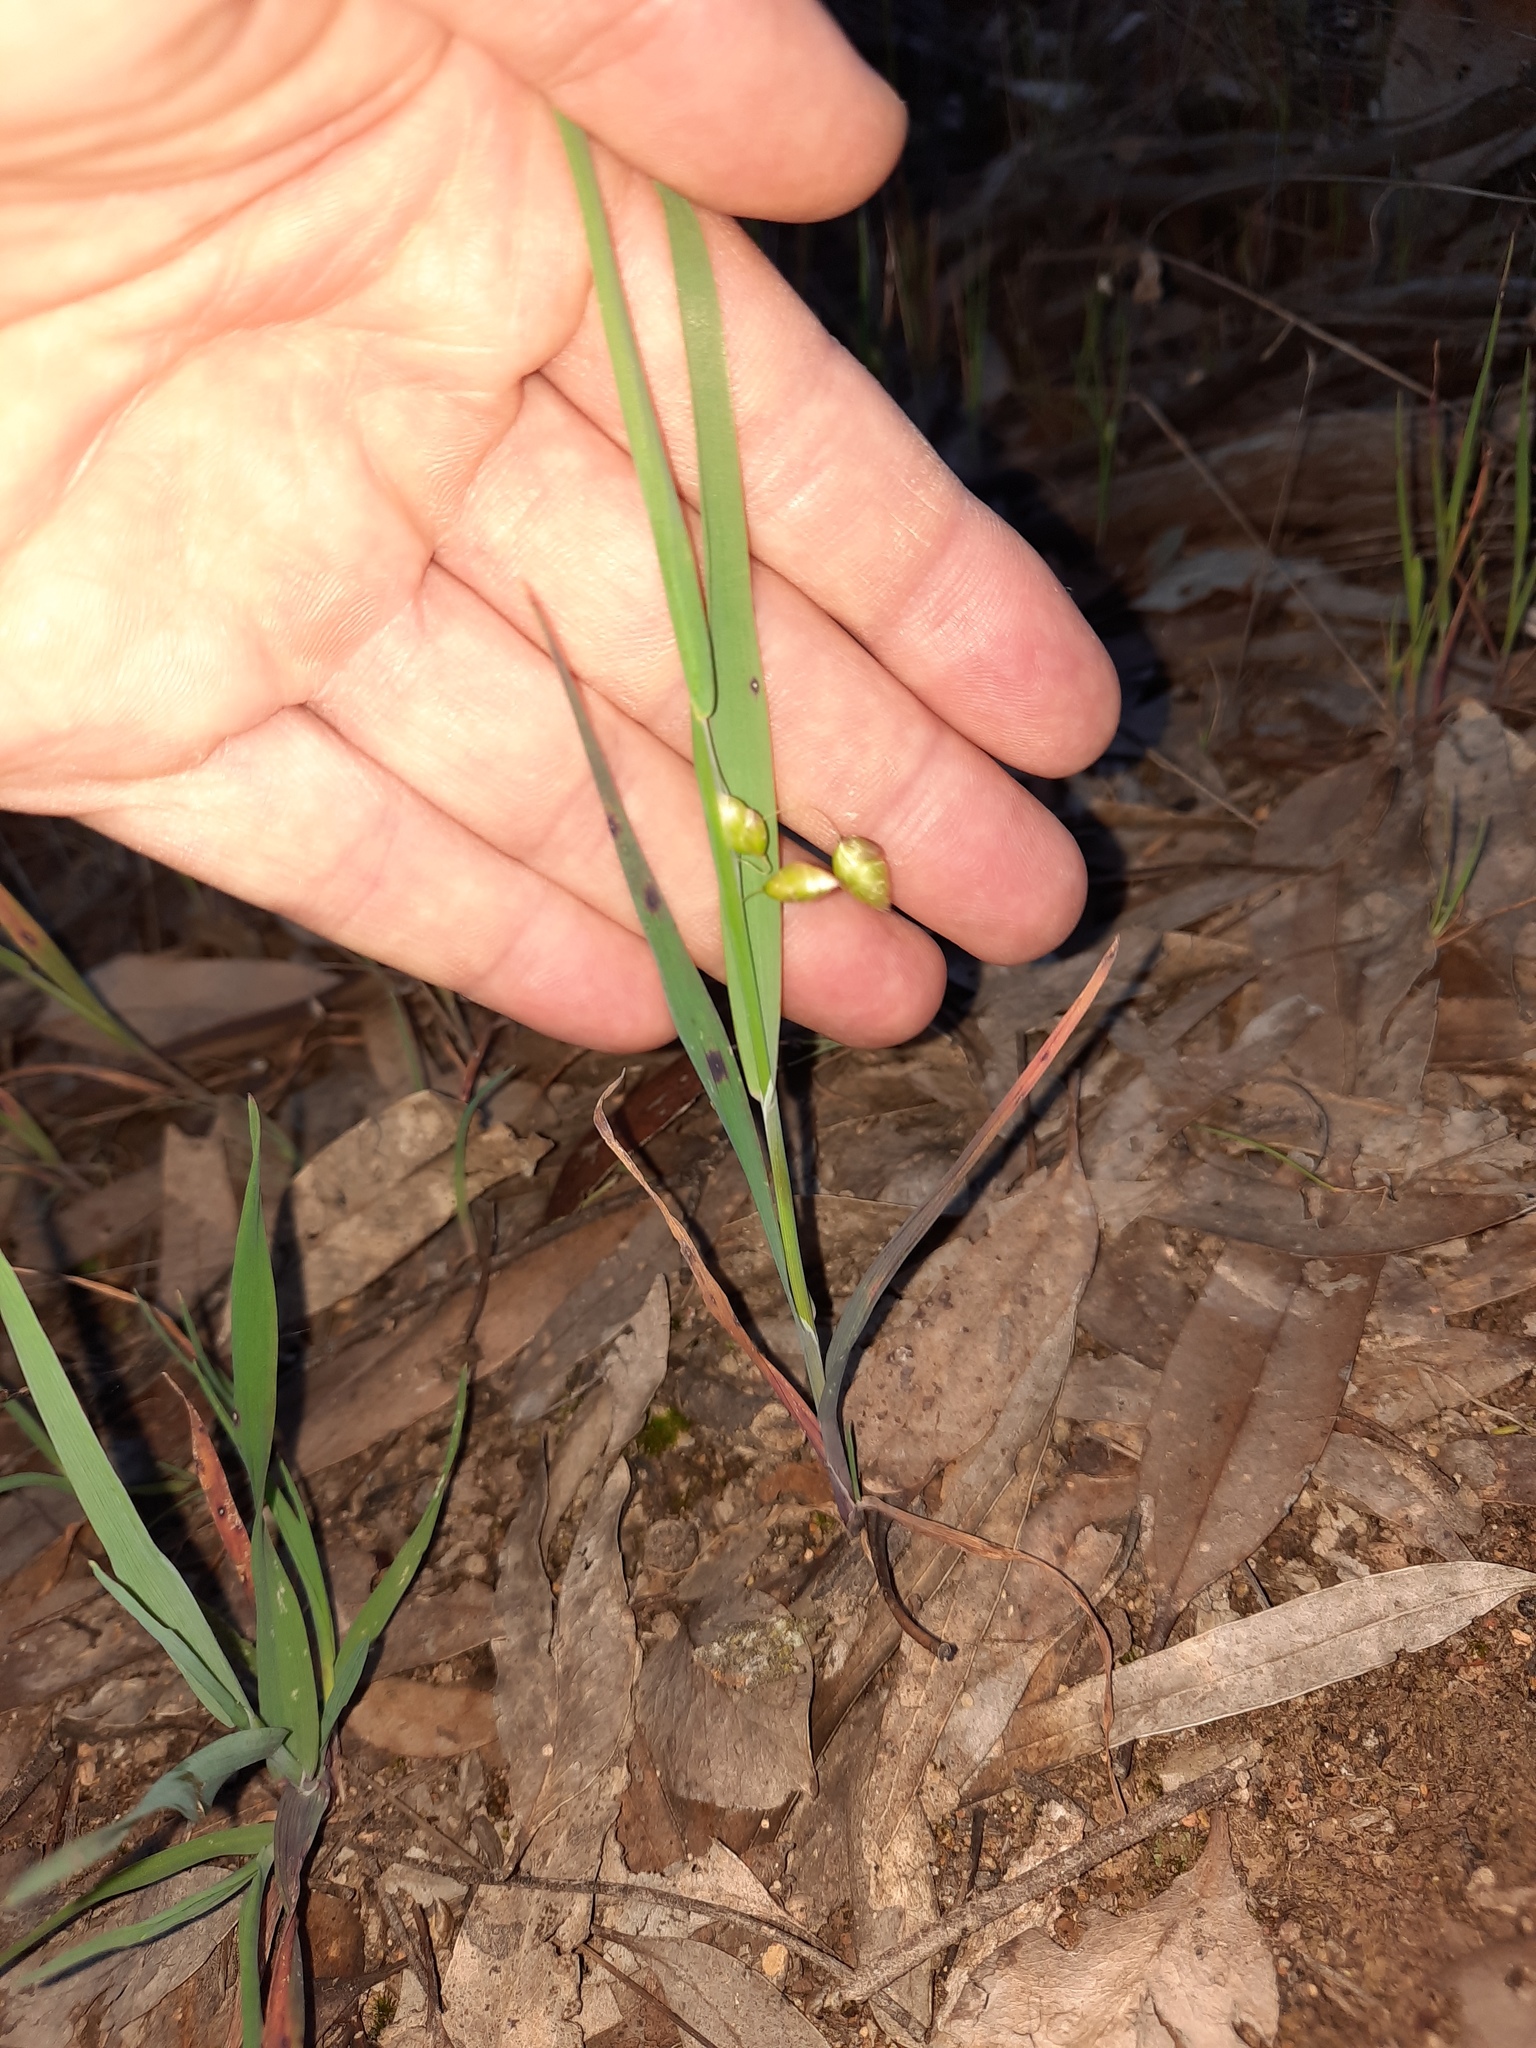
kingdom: Plantae
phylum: Tracheophyta
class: Liliopsida
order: Poales
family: Poaceae
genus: Briza
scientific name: Briza maxima
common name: Big quakinggrass
